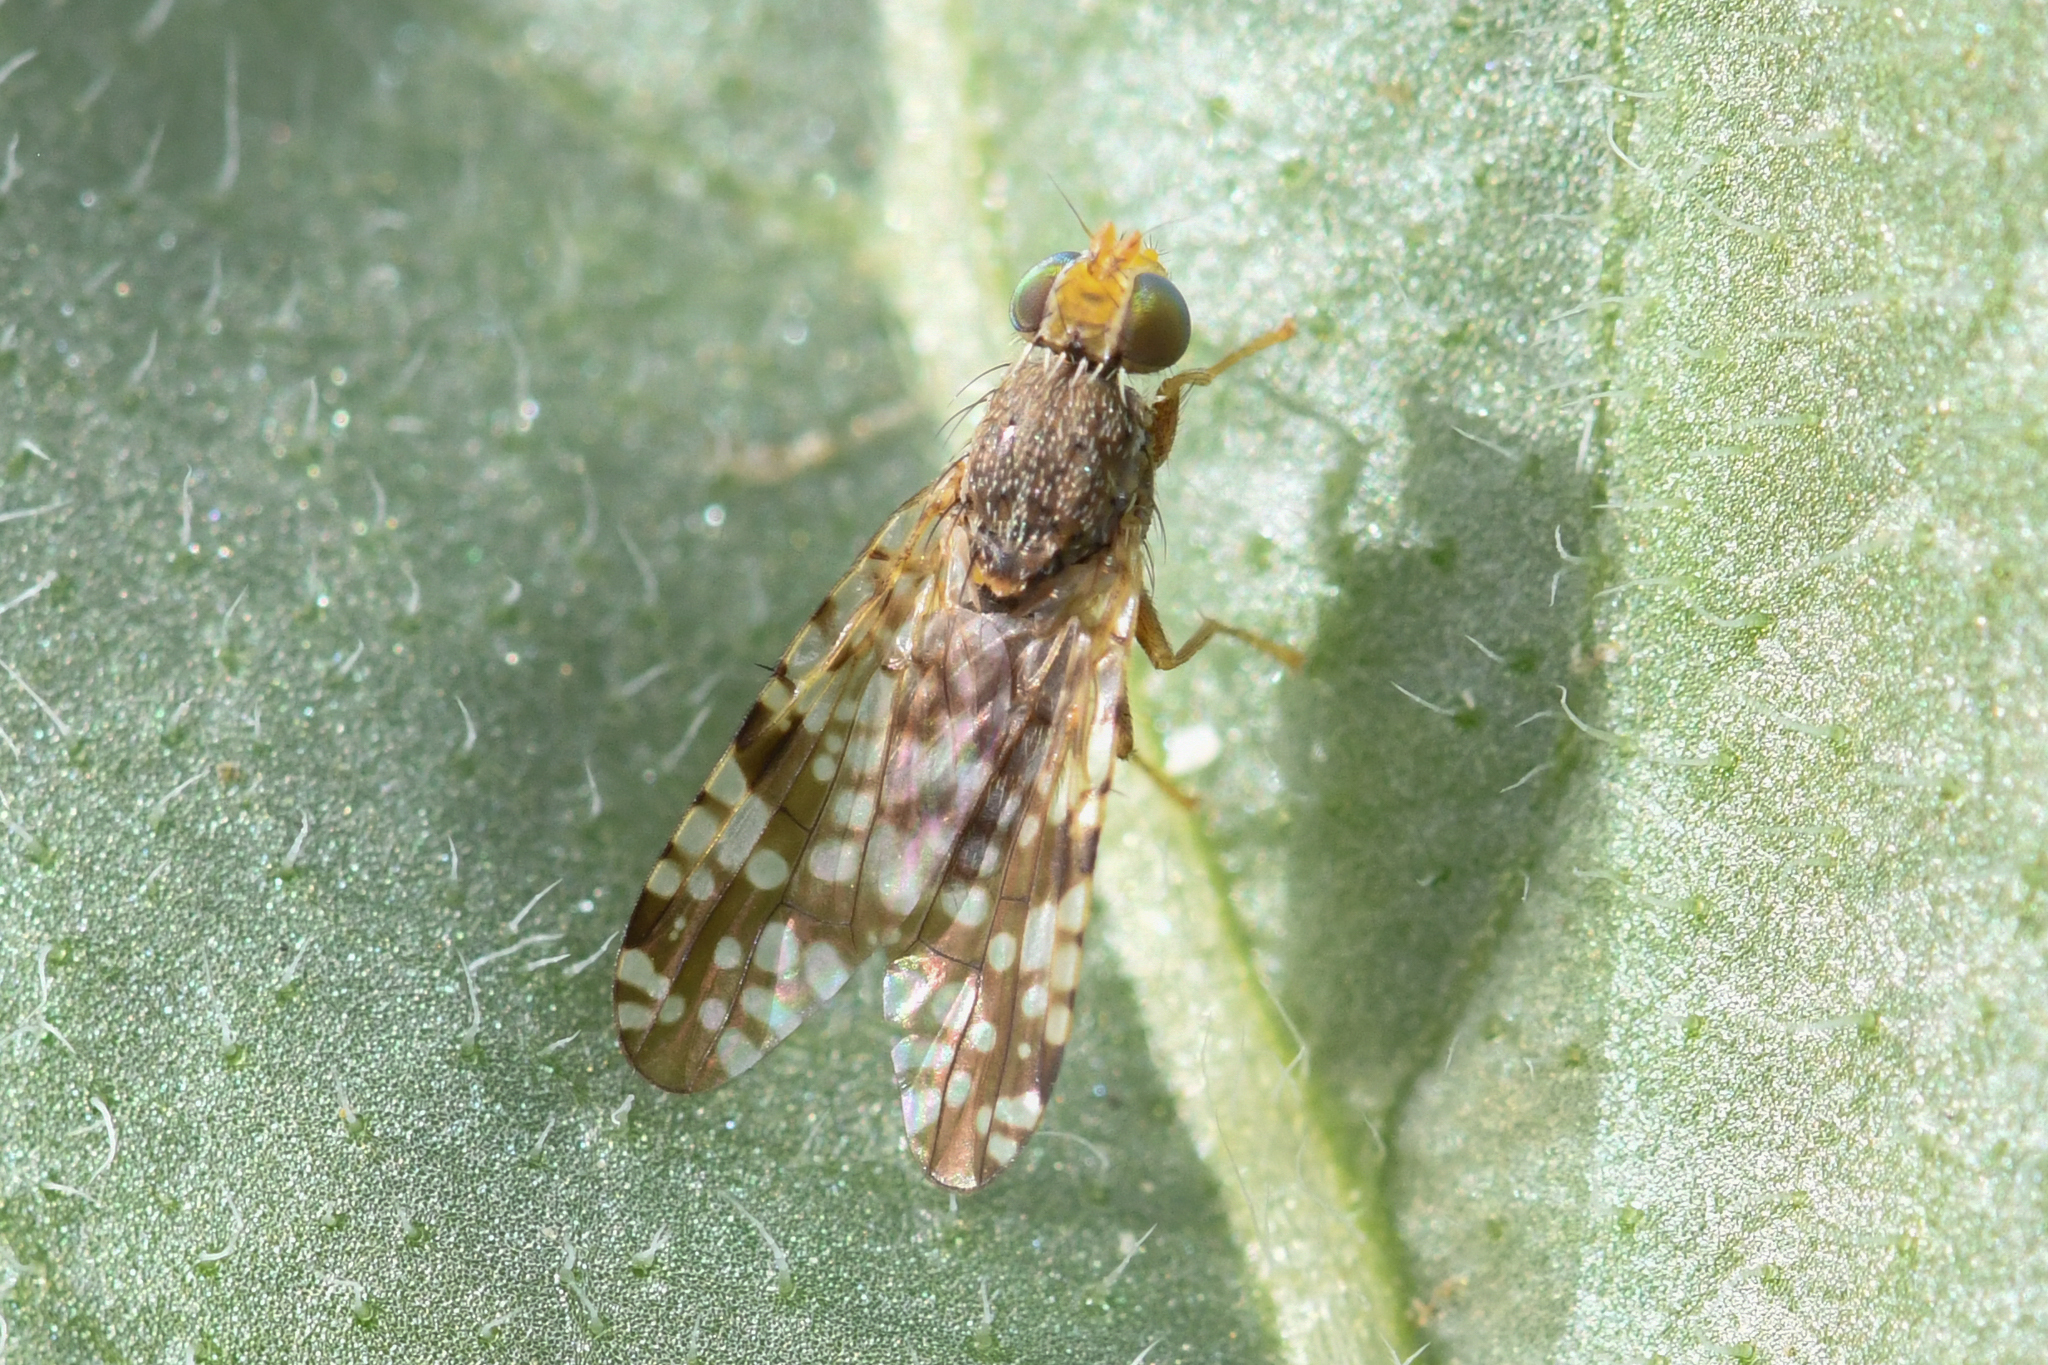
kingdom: Animalia
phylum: Arthropoda
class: Insecta
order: Diptera
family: Tephritidae
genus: Neotephritis
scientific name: Neotephritis finalis
